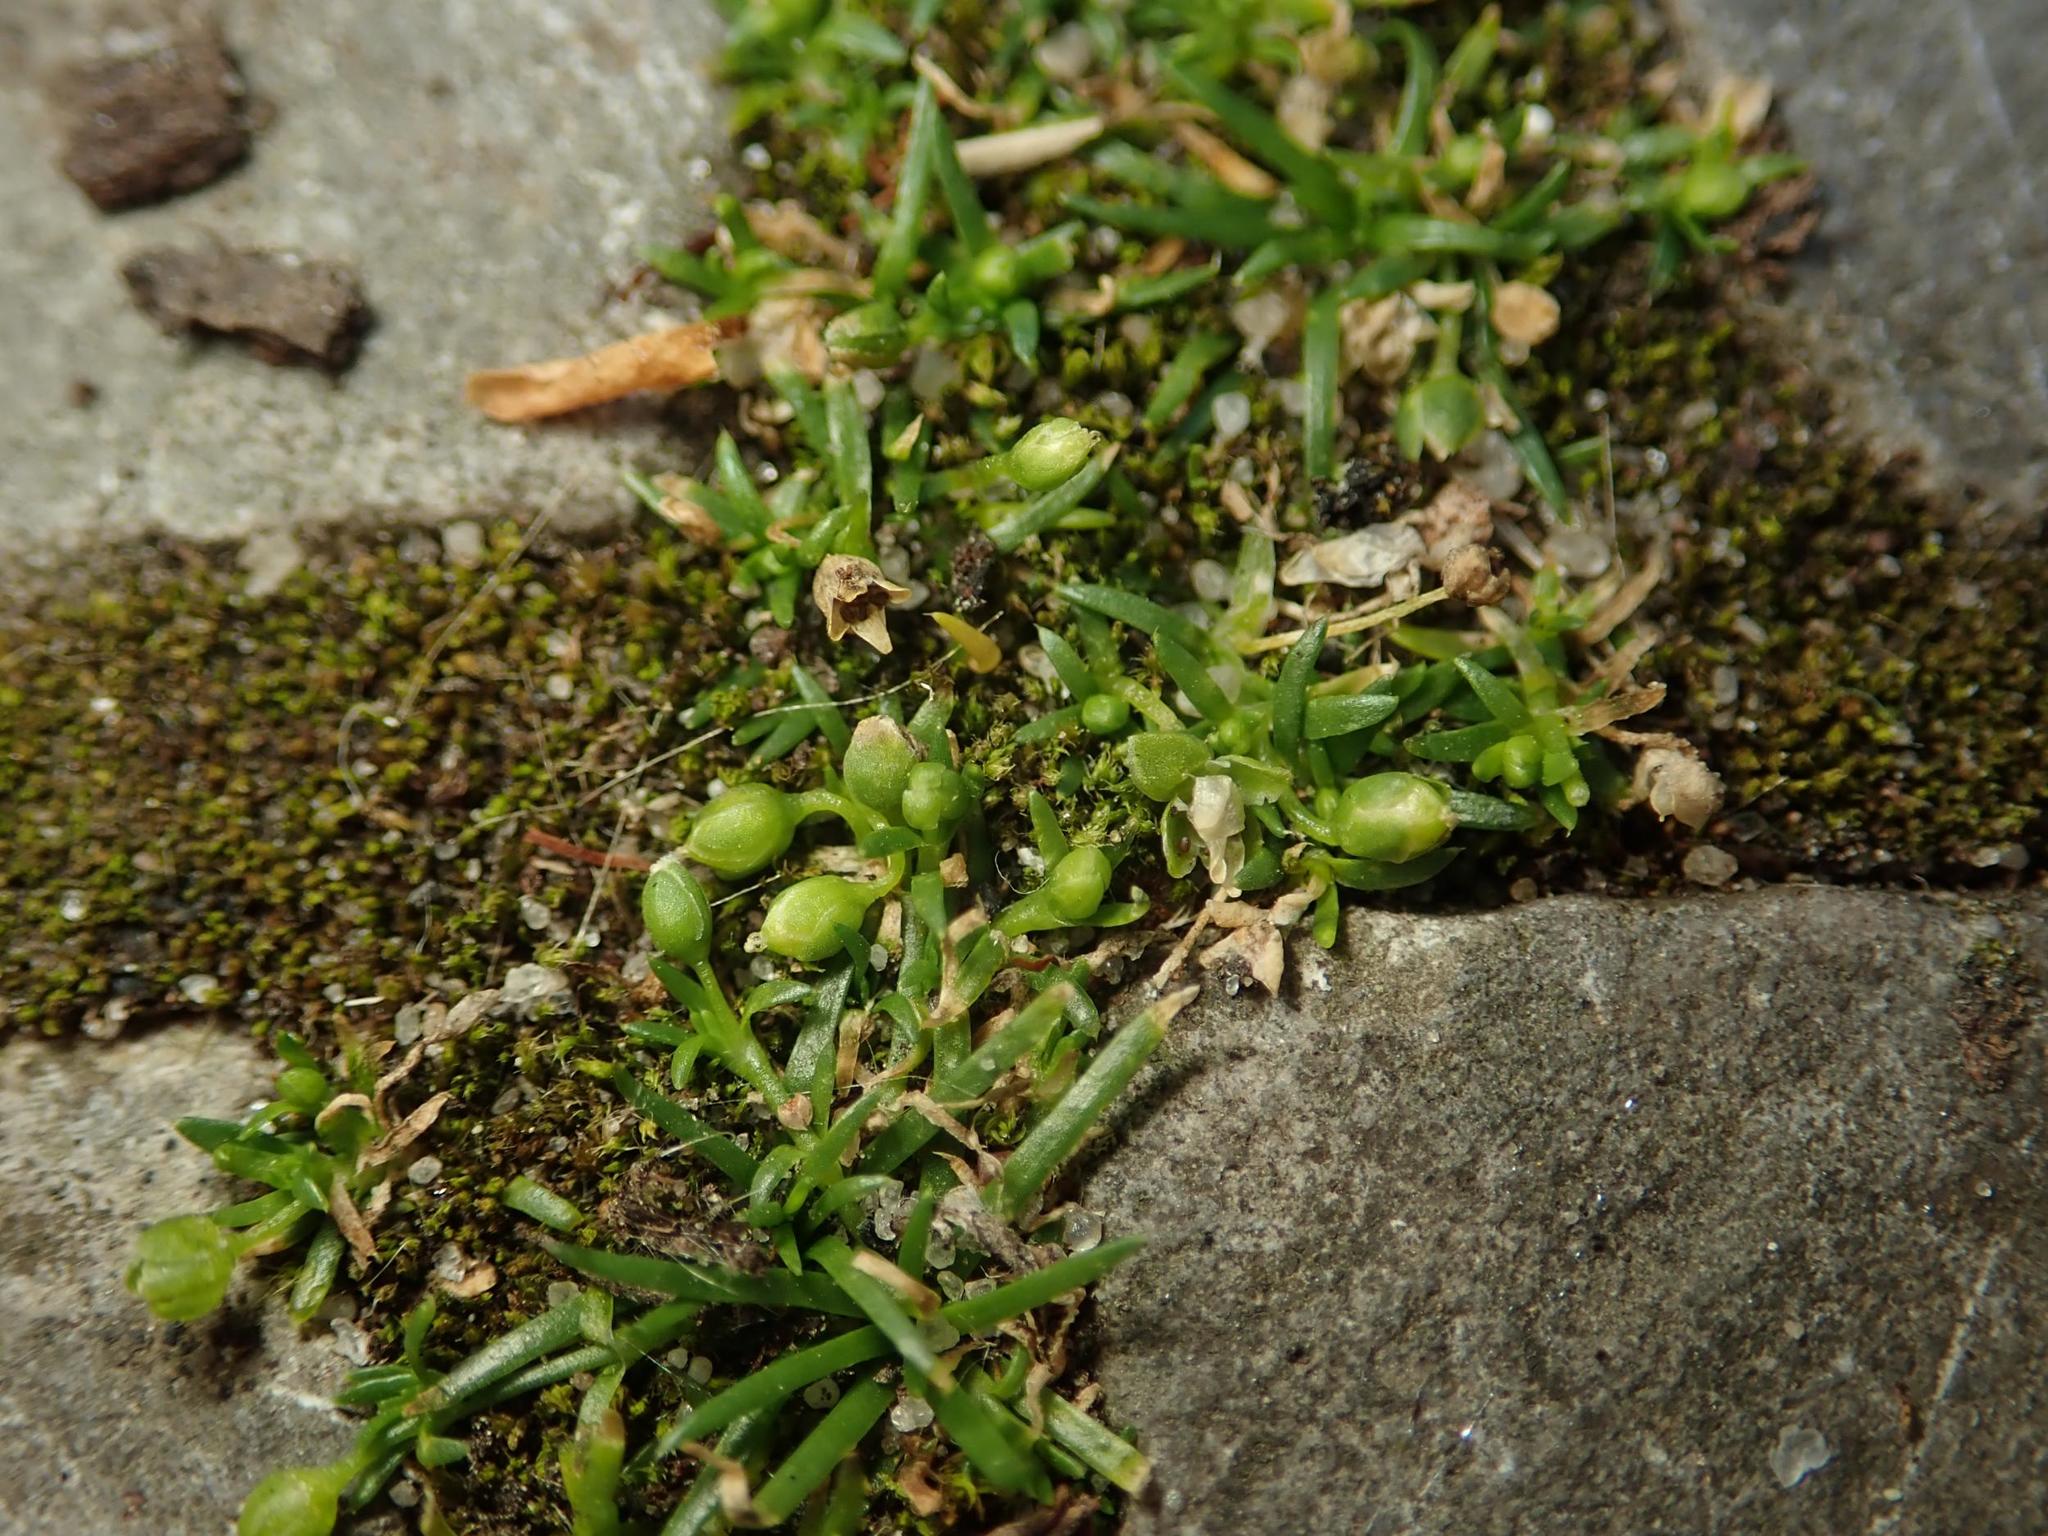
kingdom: Plantae
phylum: Tracheophyta
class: Magnoliopsida
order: Caryophyllales
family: Caryophyllaceae
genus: Sagina
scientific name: Sagina procumbens
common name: Procumbent pearlwort
